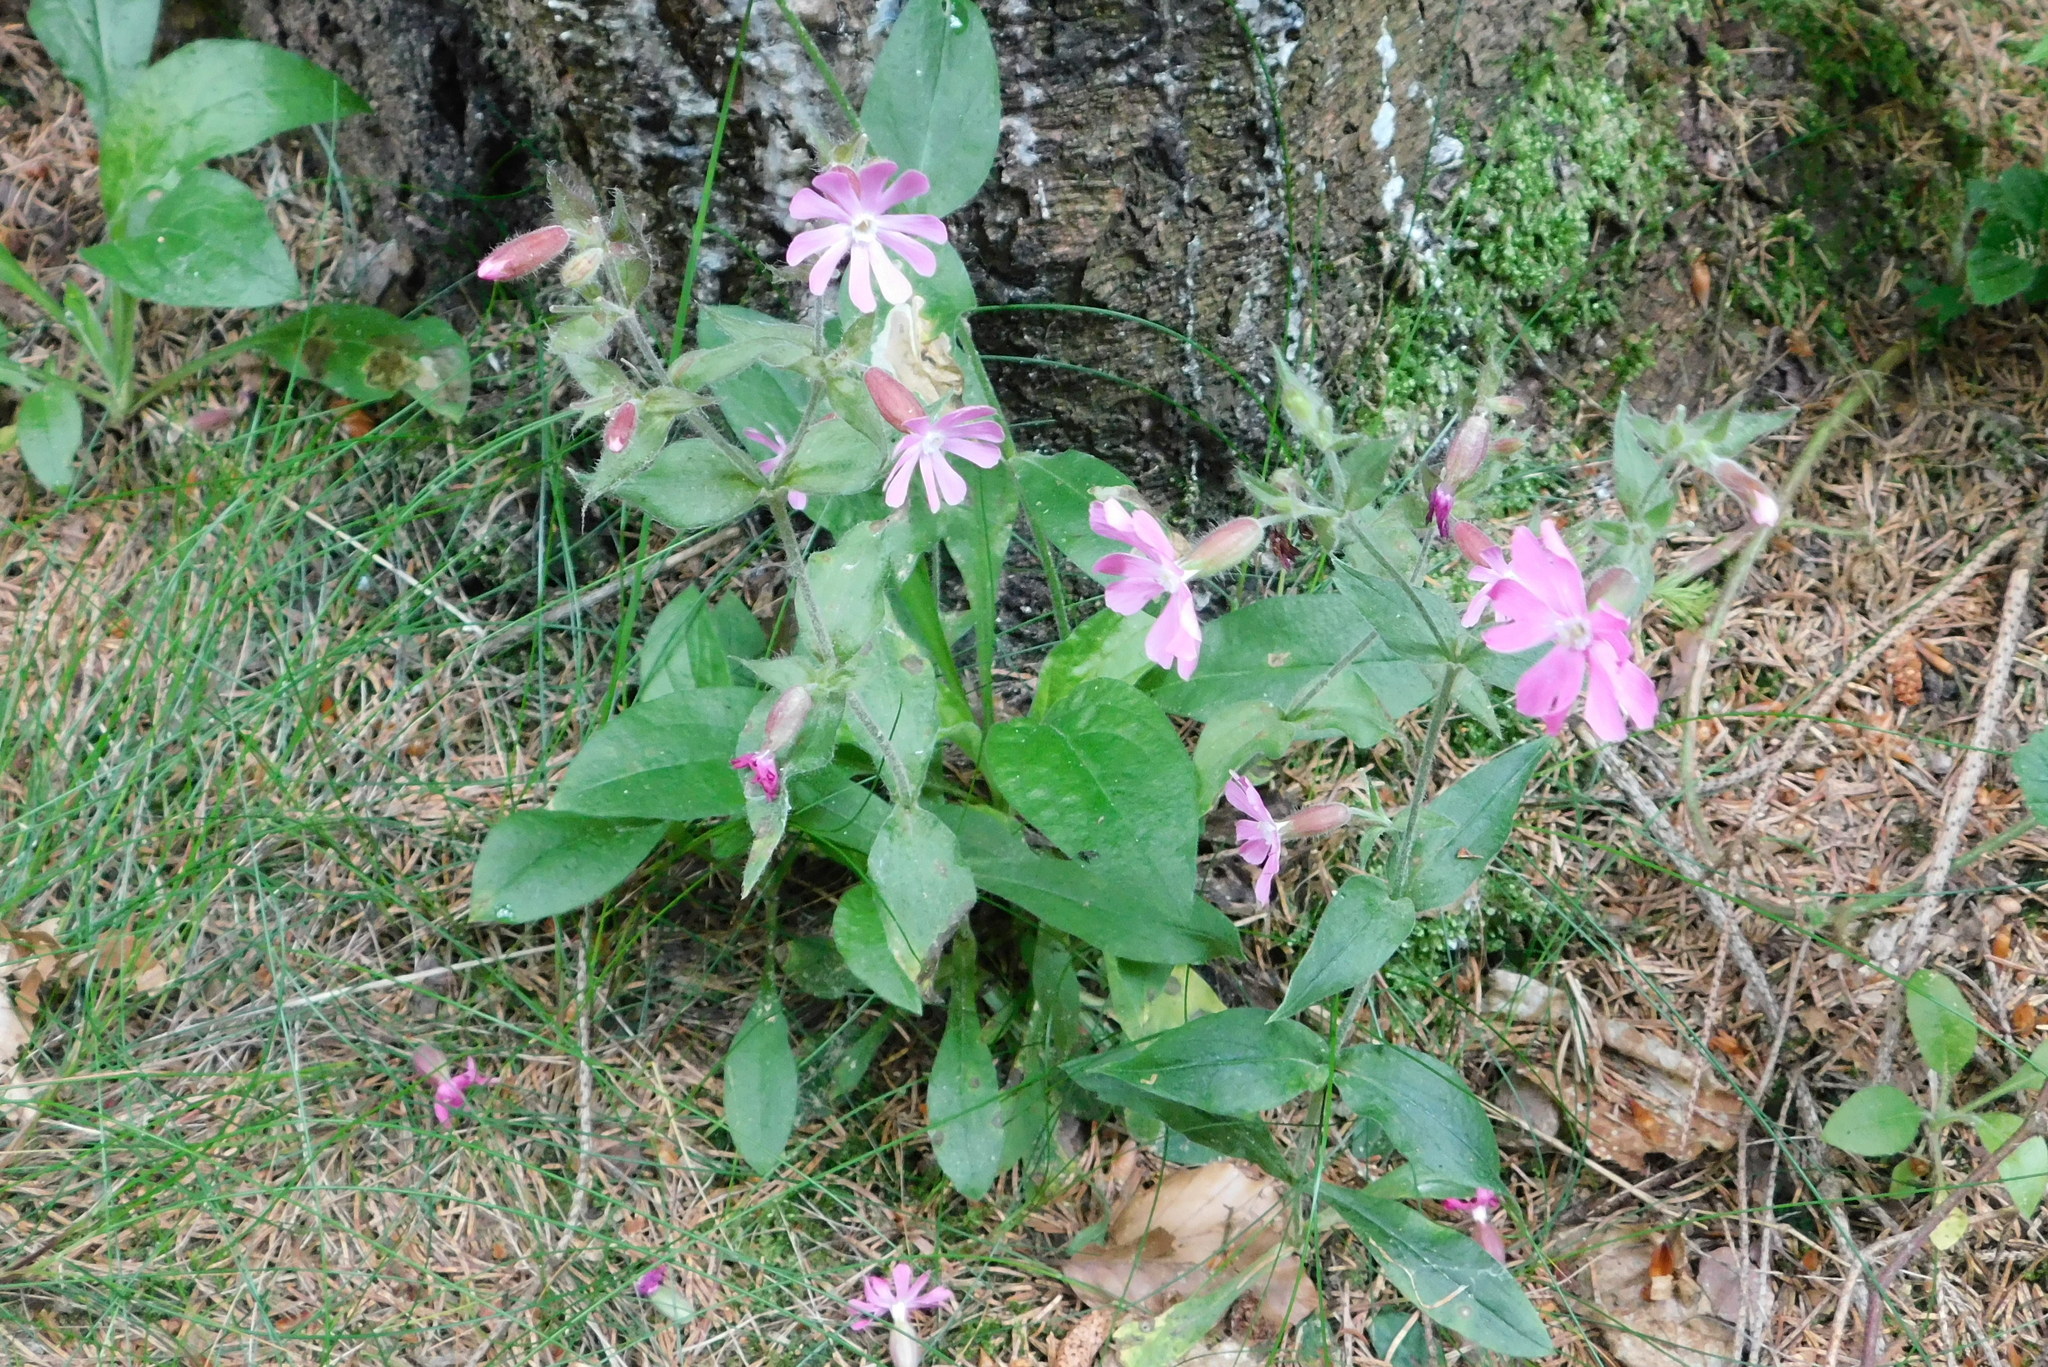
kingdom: Plantae
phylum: Tracheophyta
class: Magnoliopsida
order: Caryophyllales
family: Caryophyllaceae
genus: Silene
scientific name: Silene dioica
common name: Red campion
